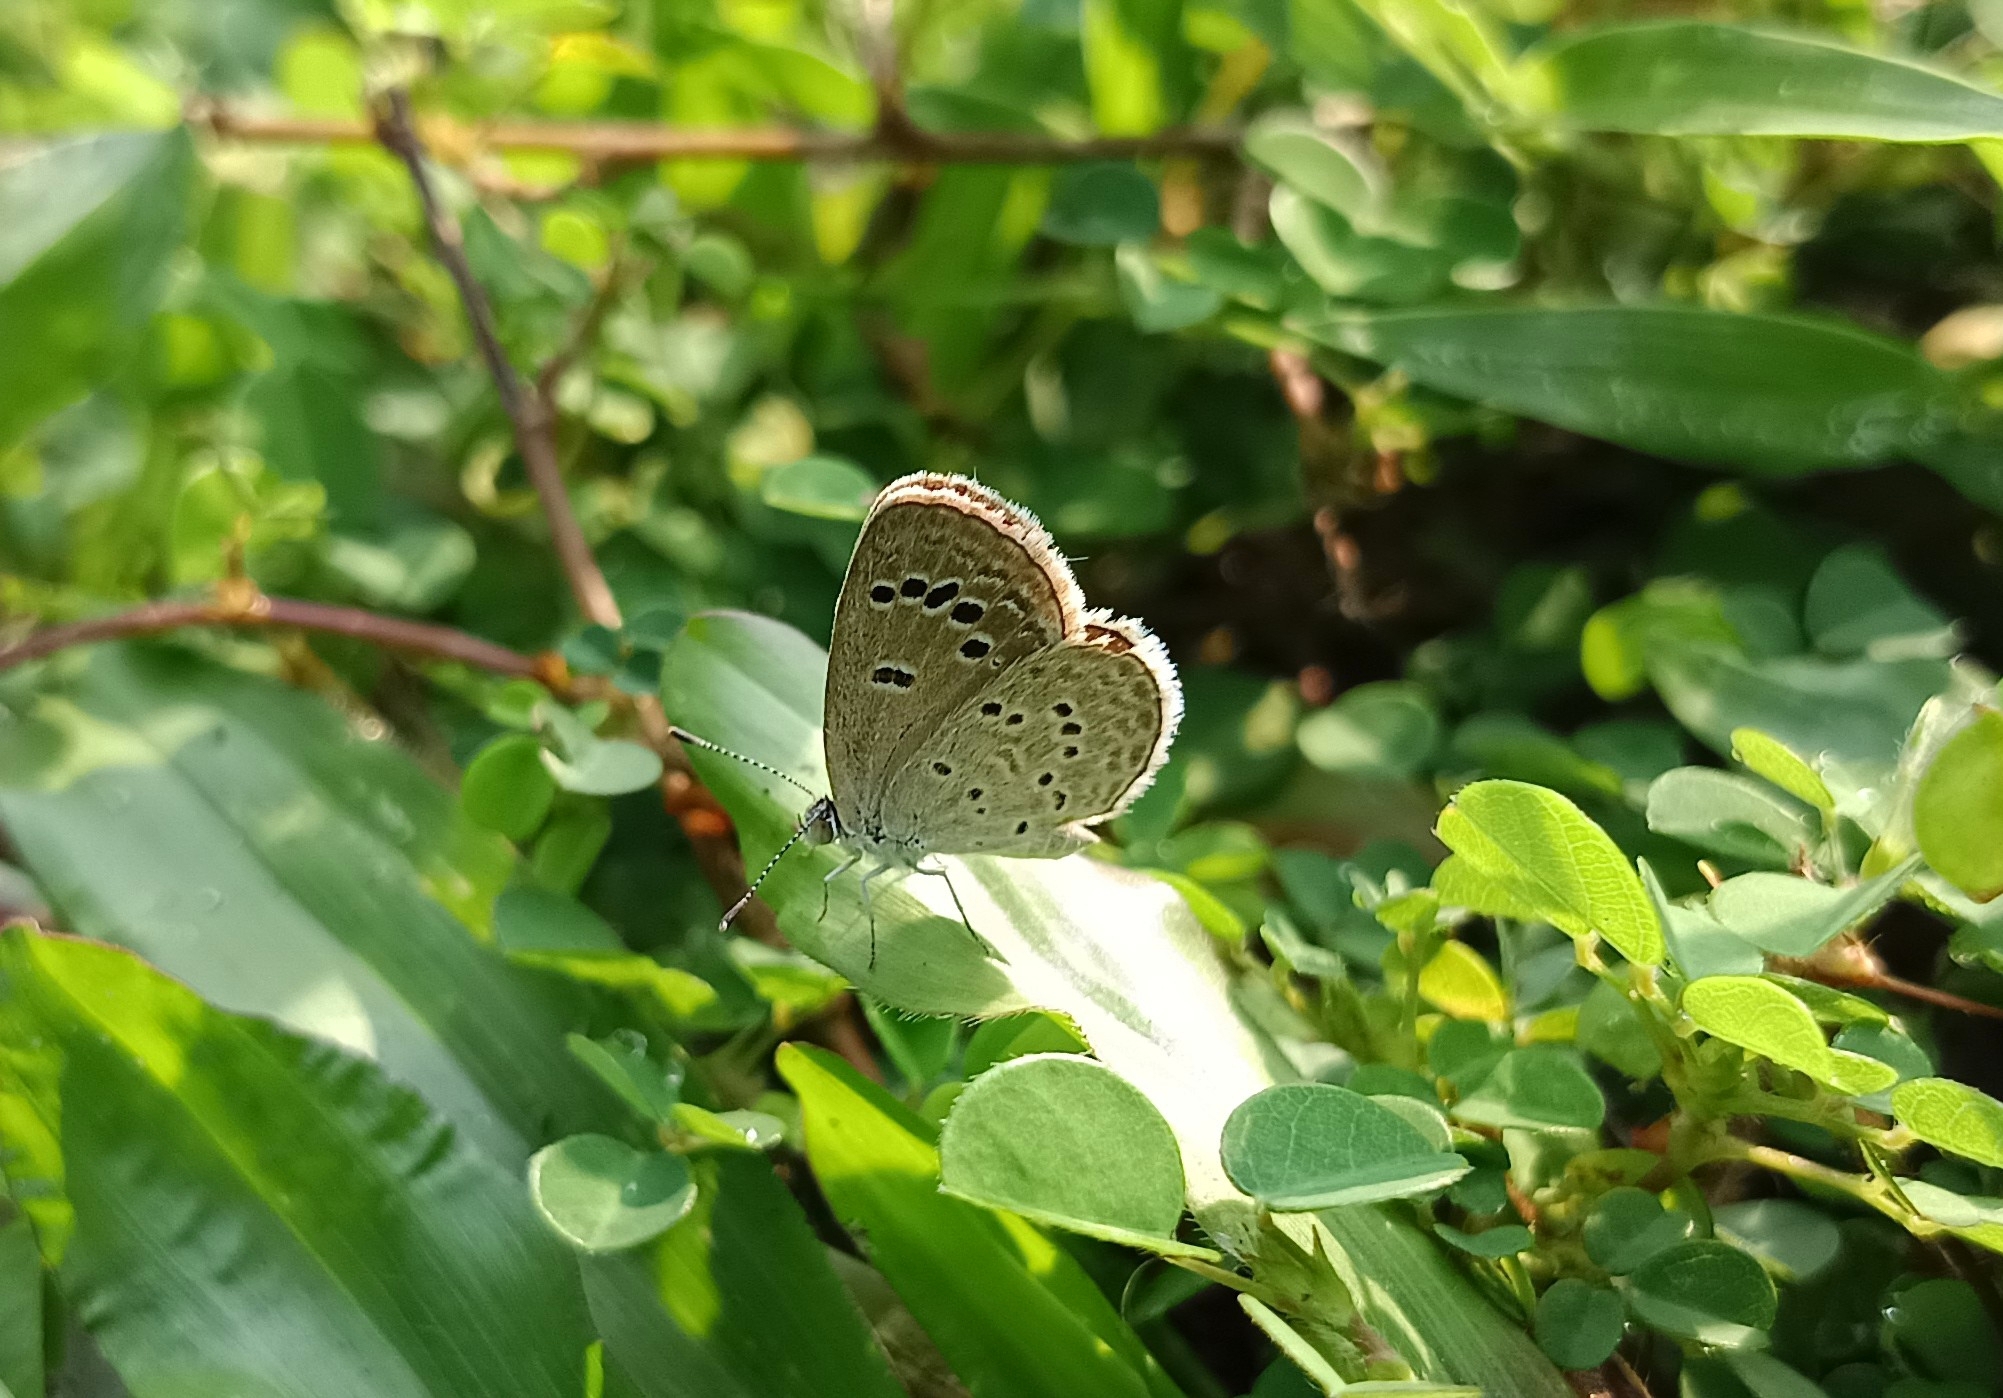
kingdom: Animalia
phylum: Arthropoda
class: Insecta
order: Lepidoptera
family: Lycaenidae
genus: Zizina
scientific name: Zizina otis
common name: Lesser grass blue
